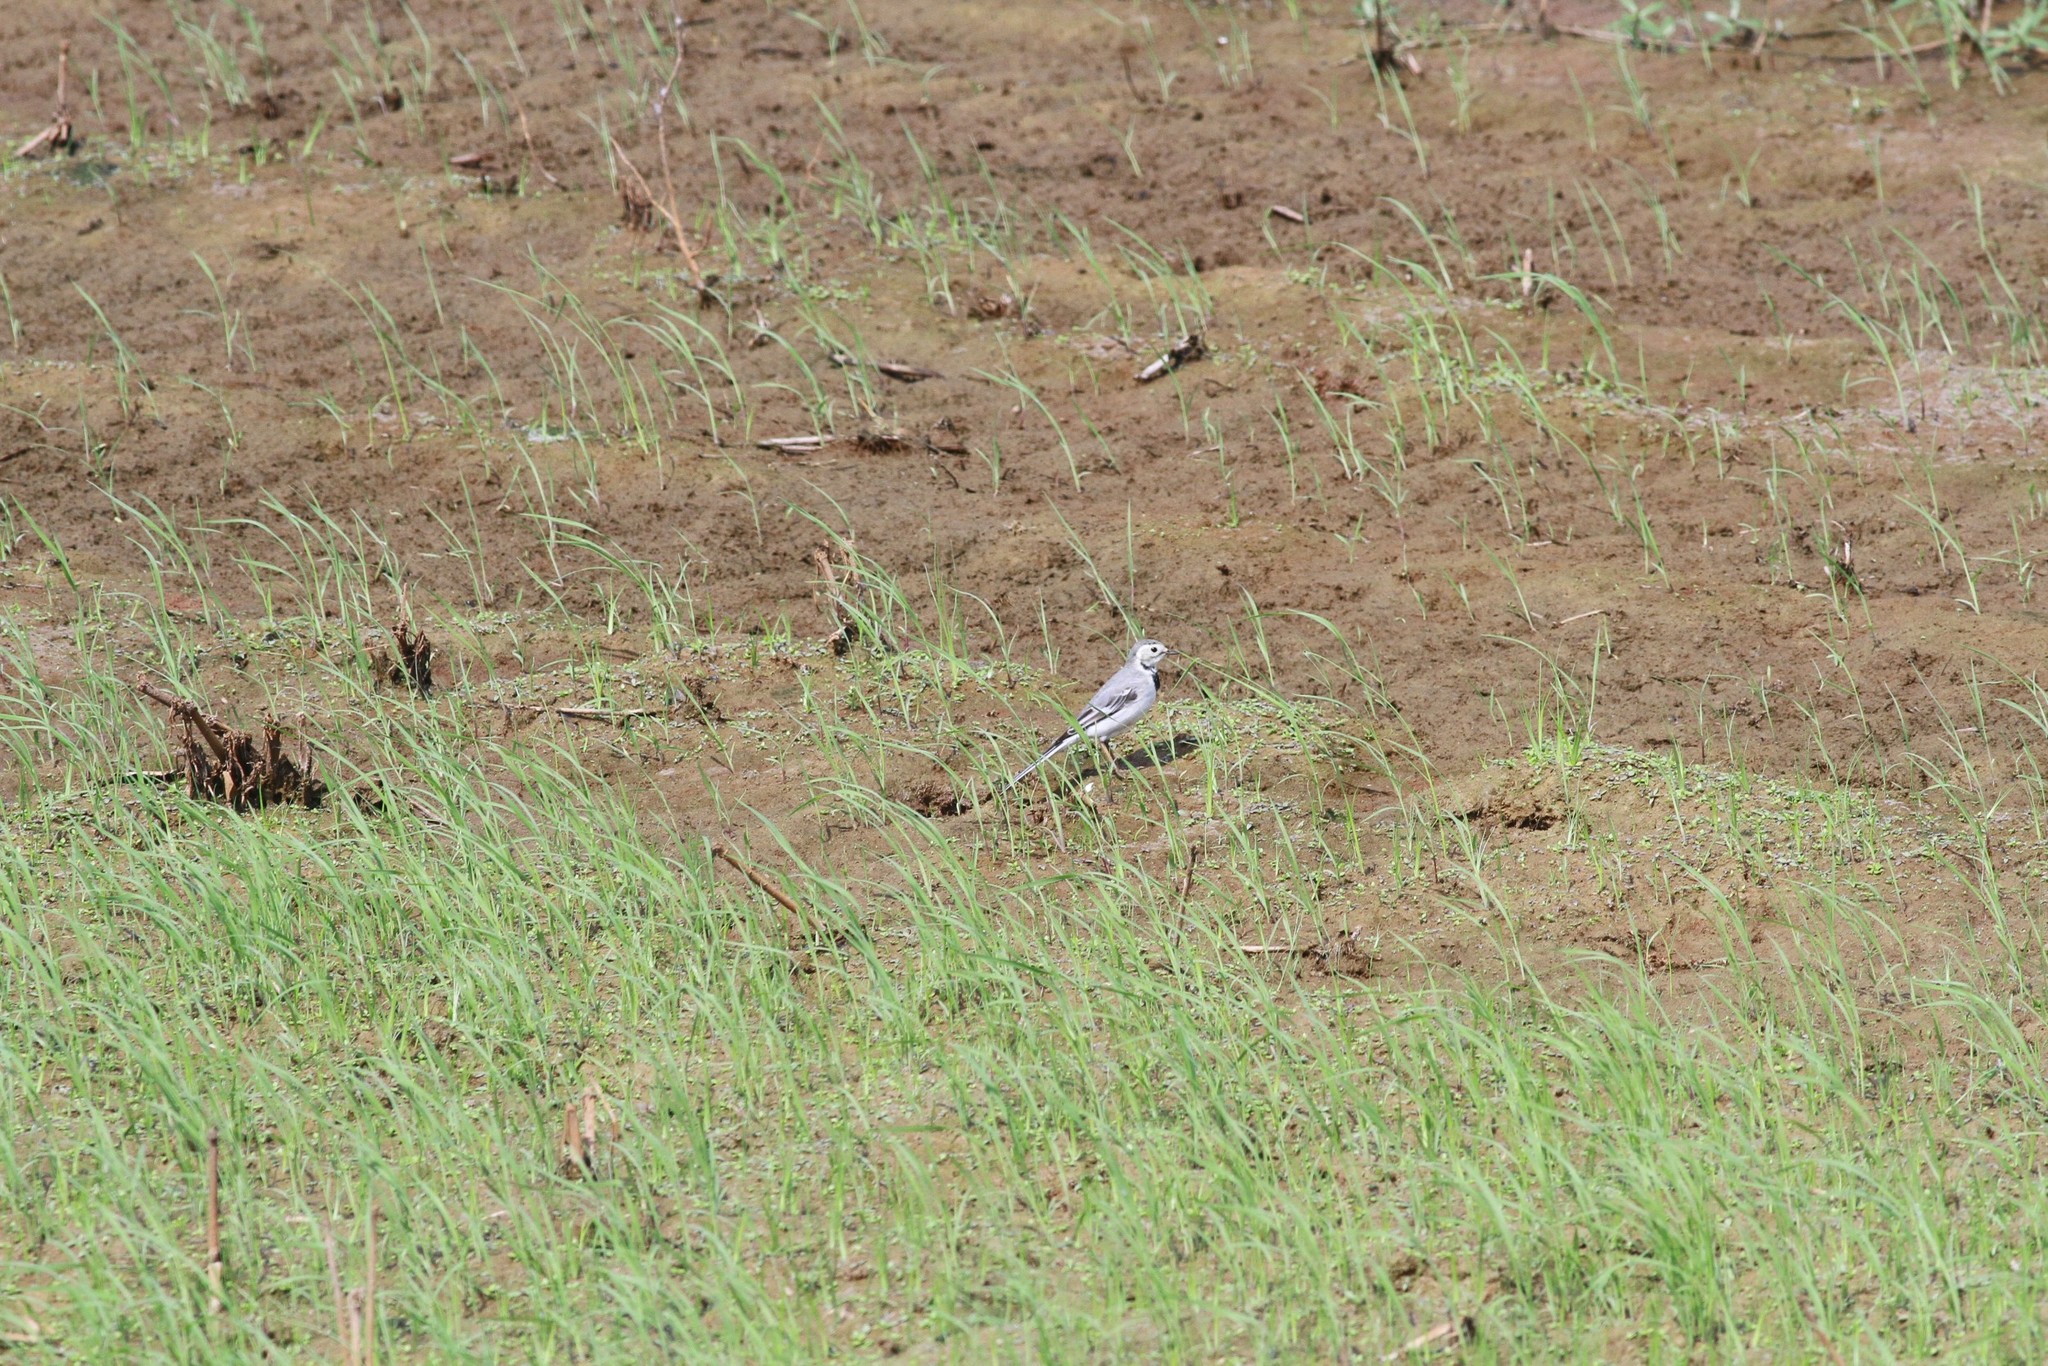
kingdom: Animalia
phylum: Chordata
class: Aves
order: Passeriformes
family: Motacillidae
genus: Motacilla
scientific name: Motacilla alba
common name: White wagtail
